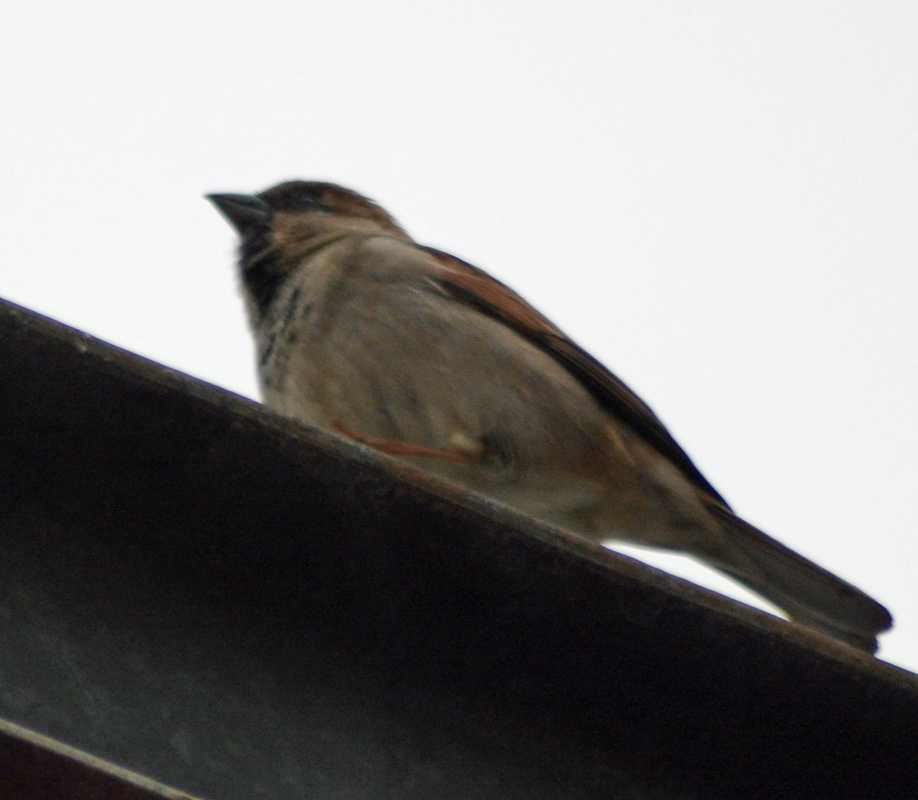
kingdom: Animalia
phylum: Chordata
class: Aves
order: Passeriformes
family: Passeridae
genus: Passer
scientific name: Passer domesticus
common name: House sparrow
